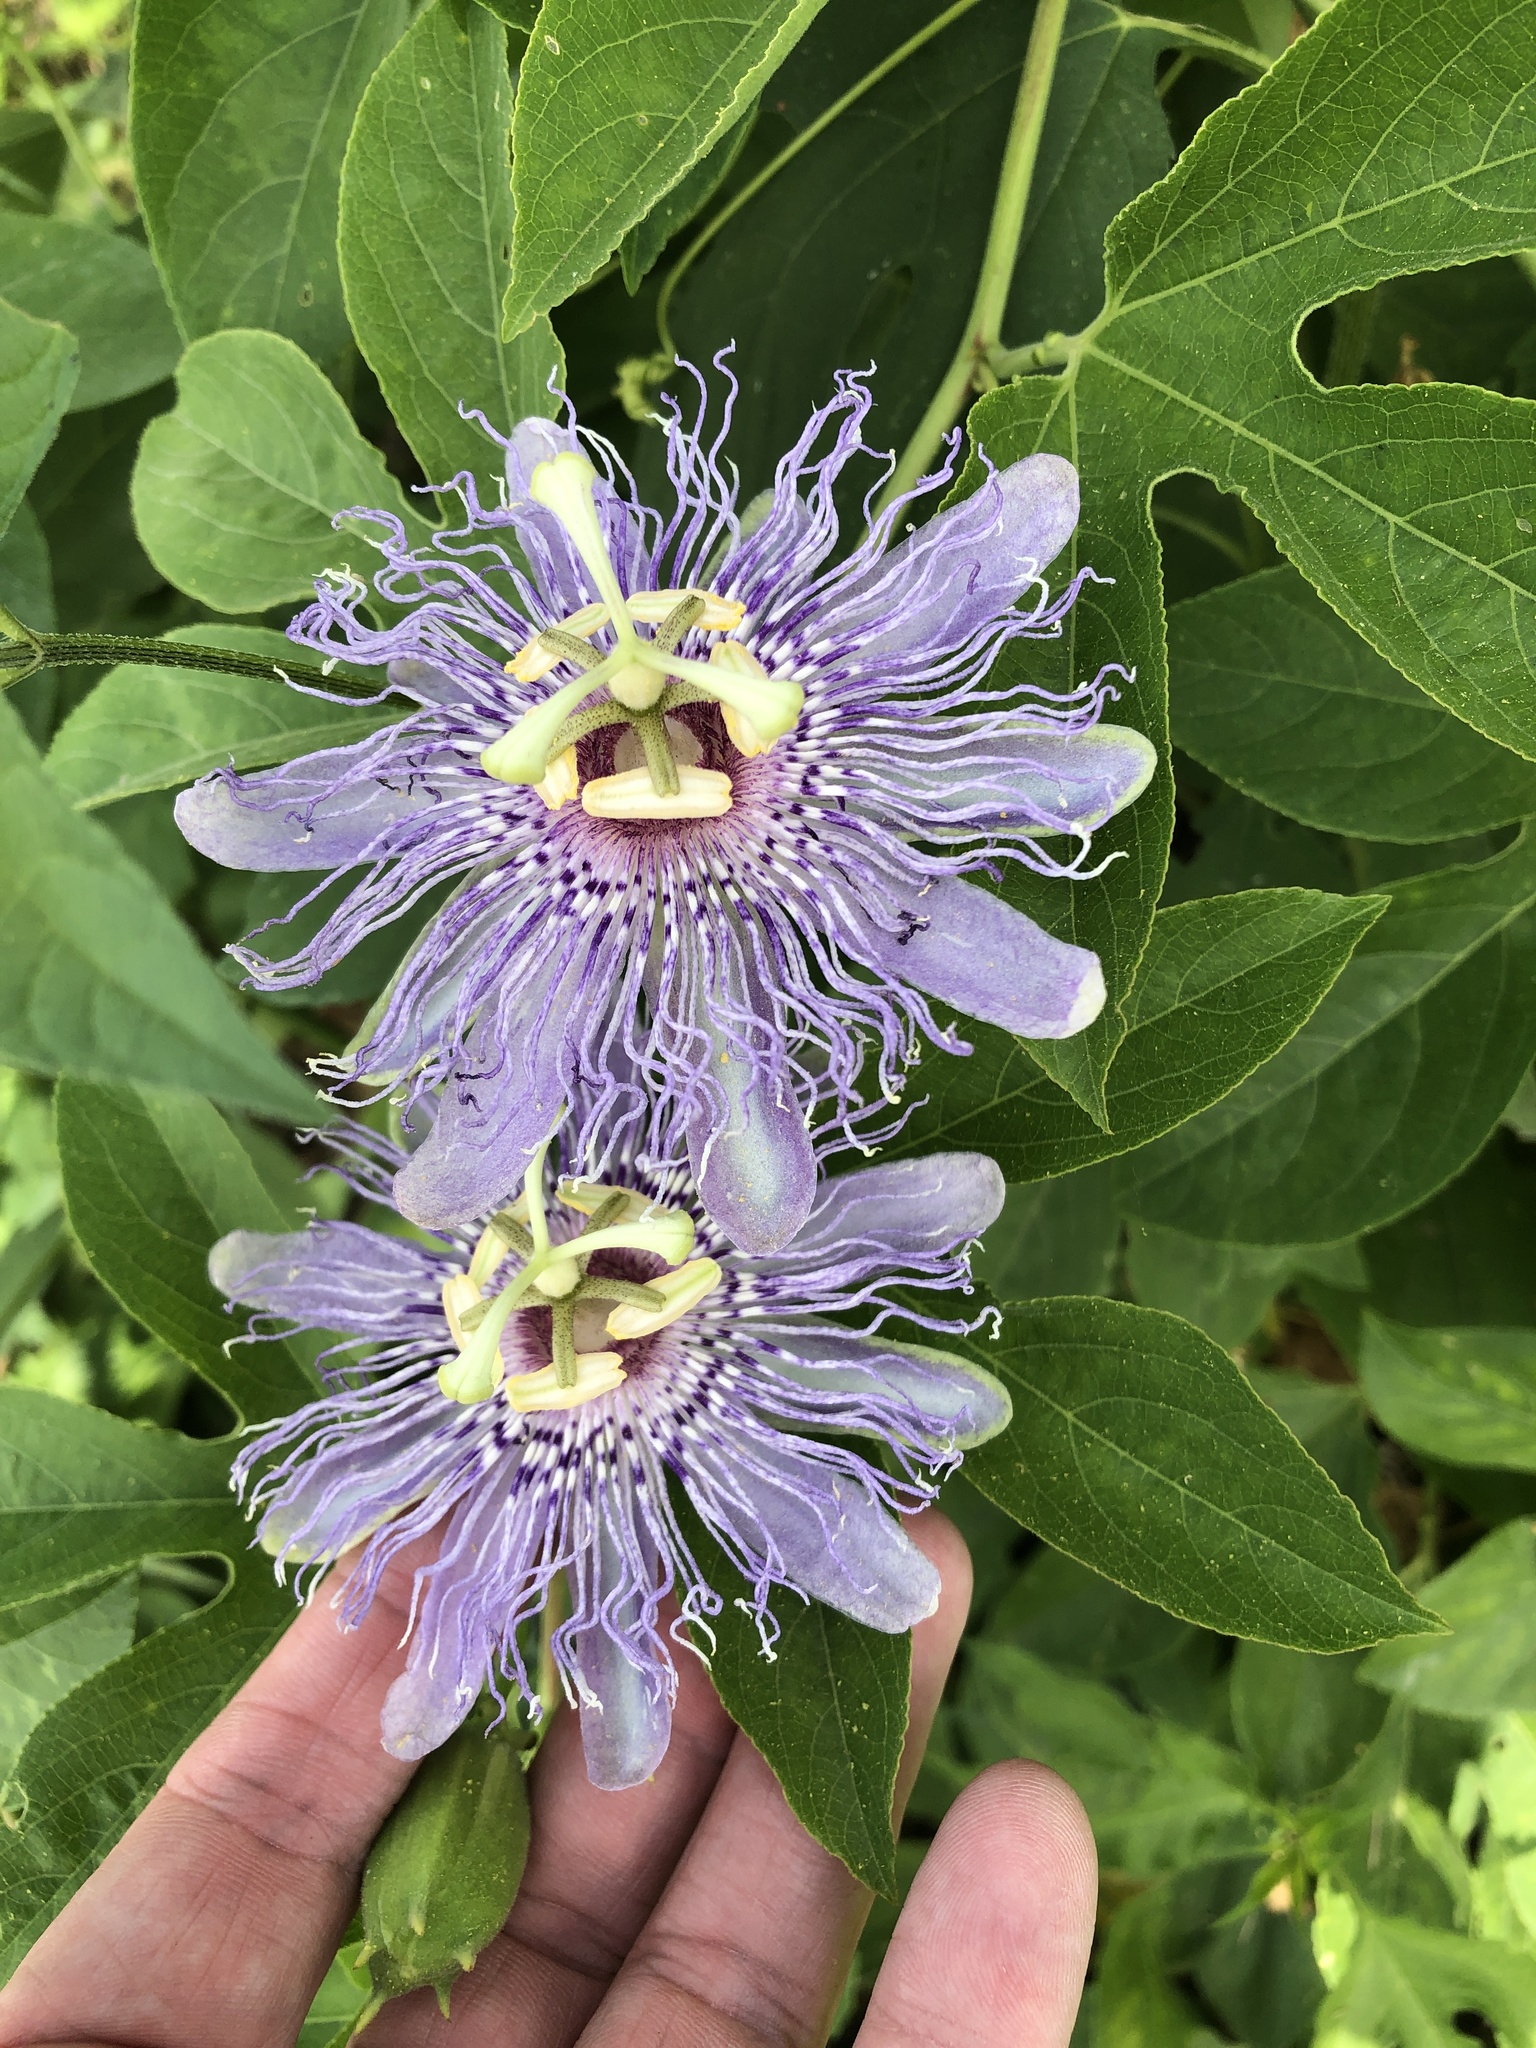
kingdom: Plantae
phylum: Tracheophyta
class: Magnoliopsida
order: Malpighiales
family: Passifloraceae
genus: Passiflora
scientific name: Passiflora incarnata
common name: Apricot-vine
